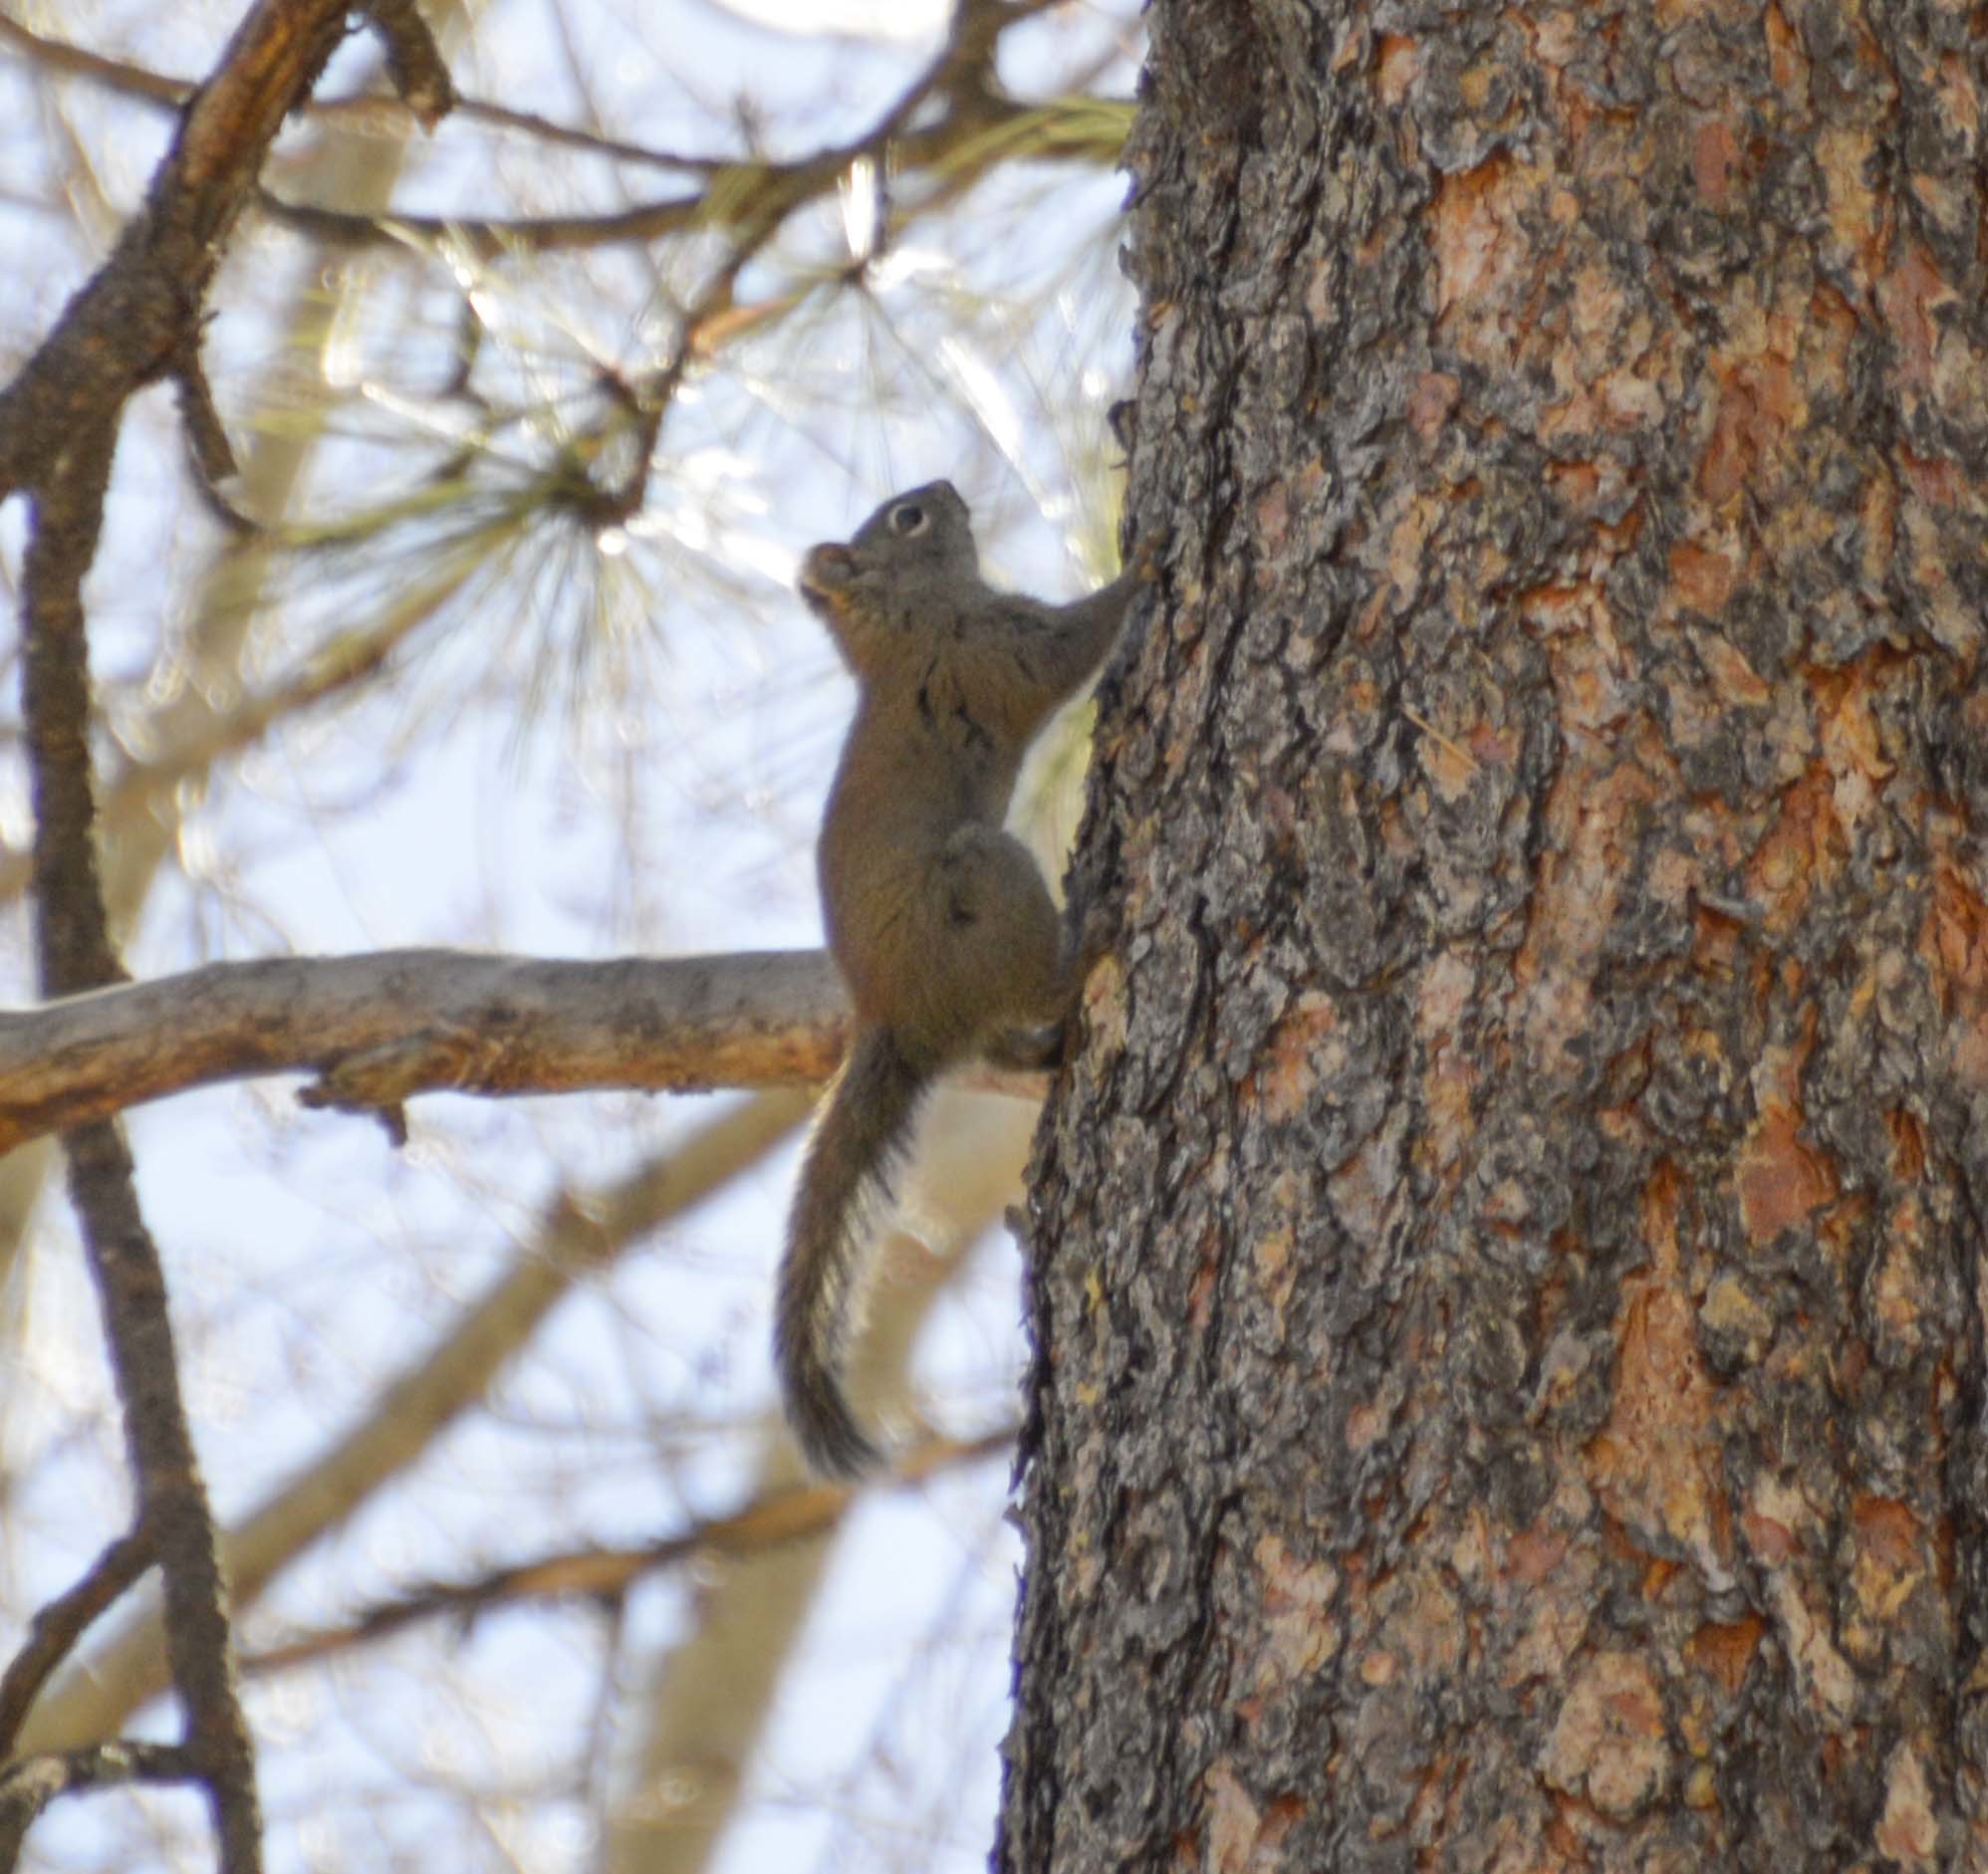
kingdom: Animalia
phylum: Chordata
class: Mammalia
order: Rodentia
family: Sciuridae
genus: Tamiasciurus
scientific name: Tamiasciurus hudsonicus
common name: Red squirrel
